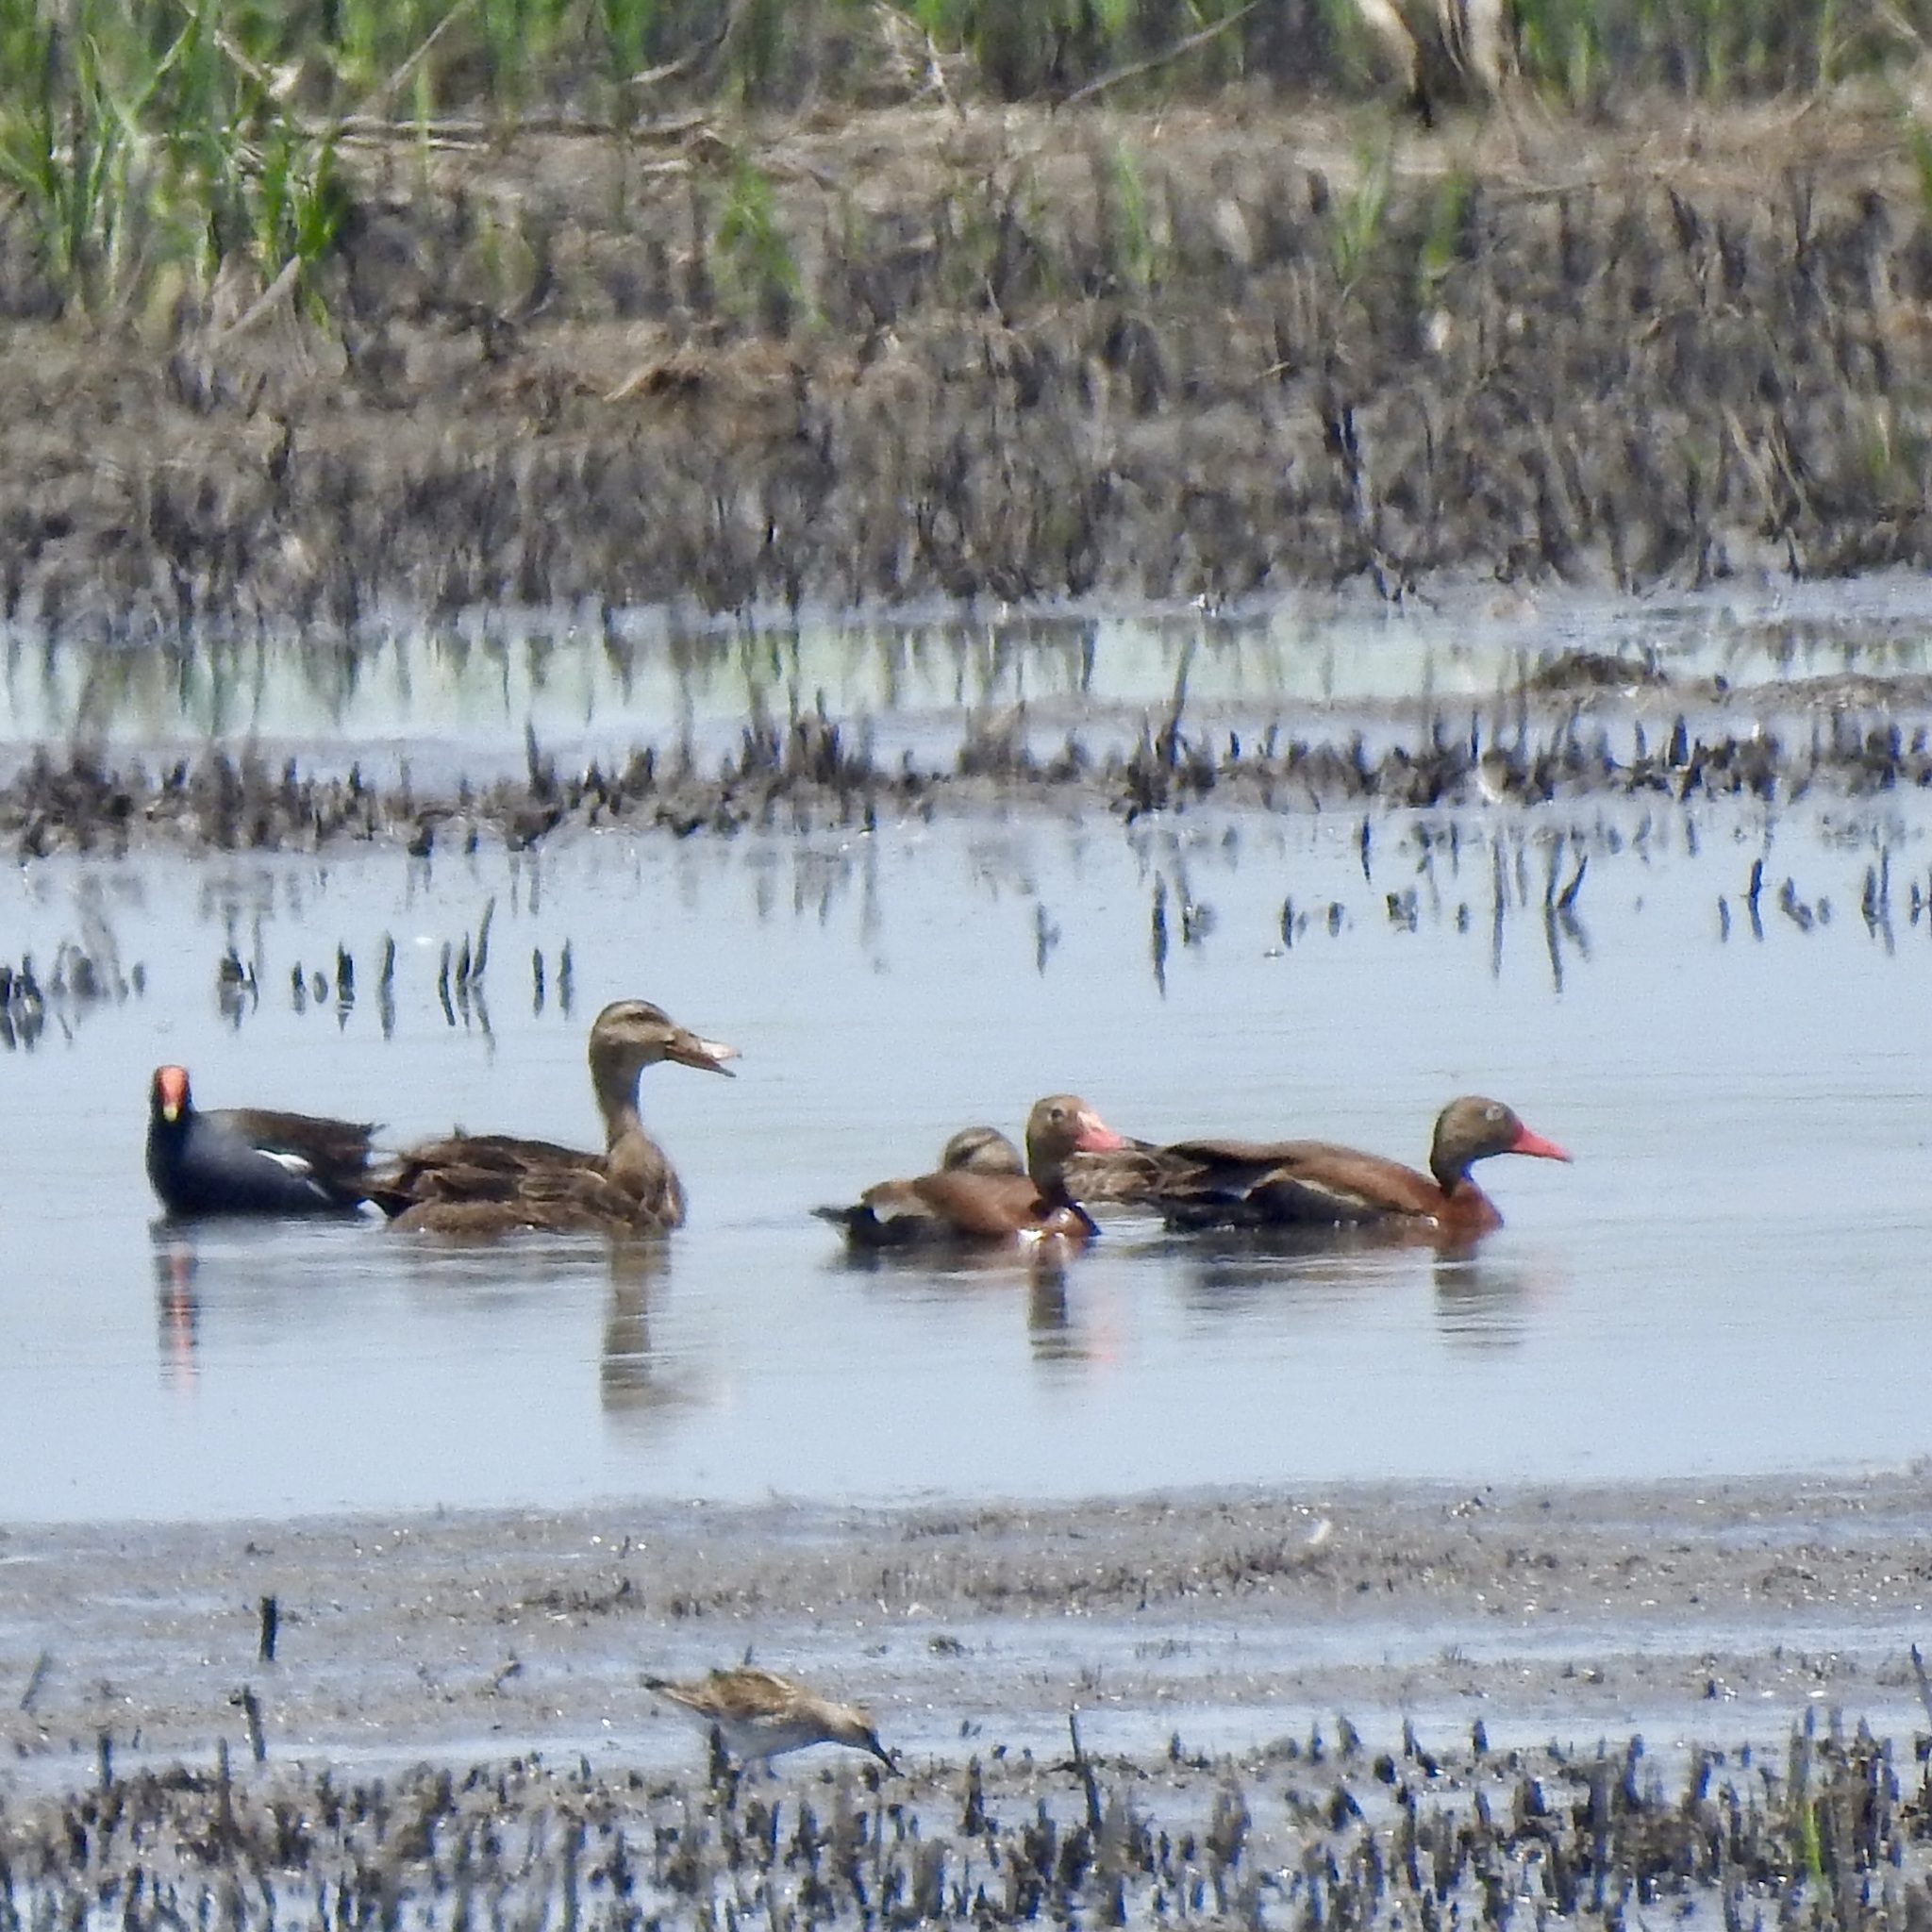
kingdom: Animalia
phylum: Chordata
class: Aves
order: Anseriformes
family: Anatidae
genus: Anas
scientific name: Anas fulvigula
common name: Mottled duck
